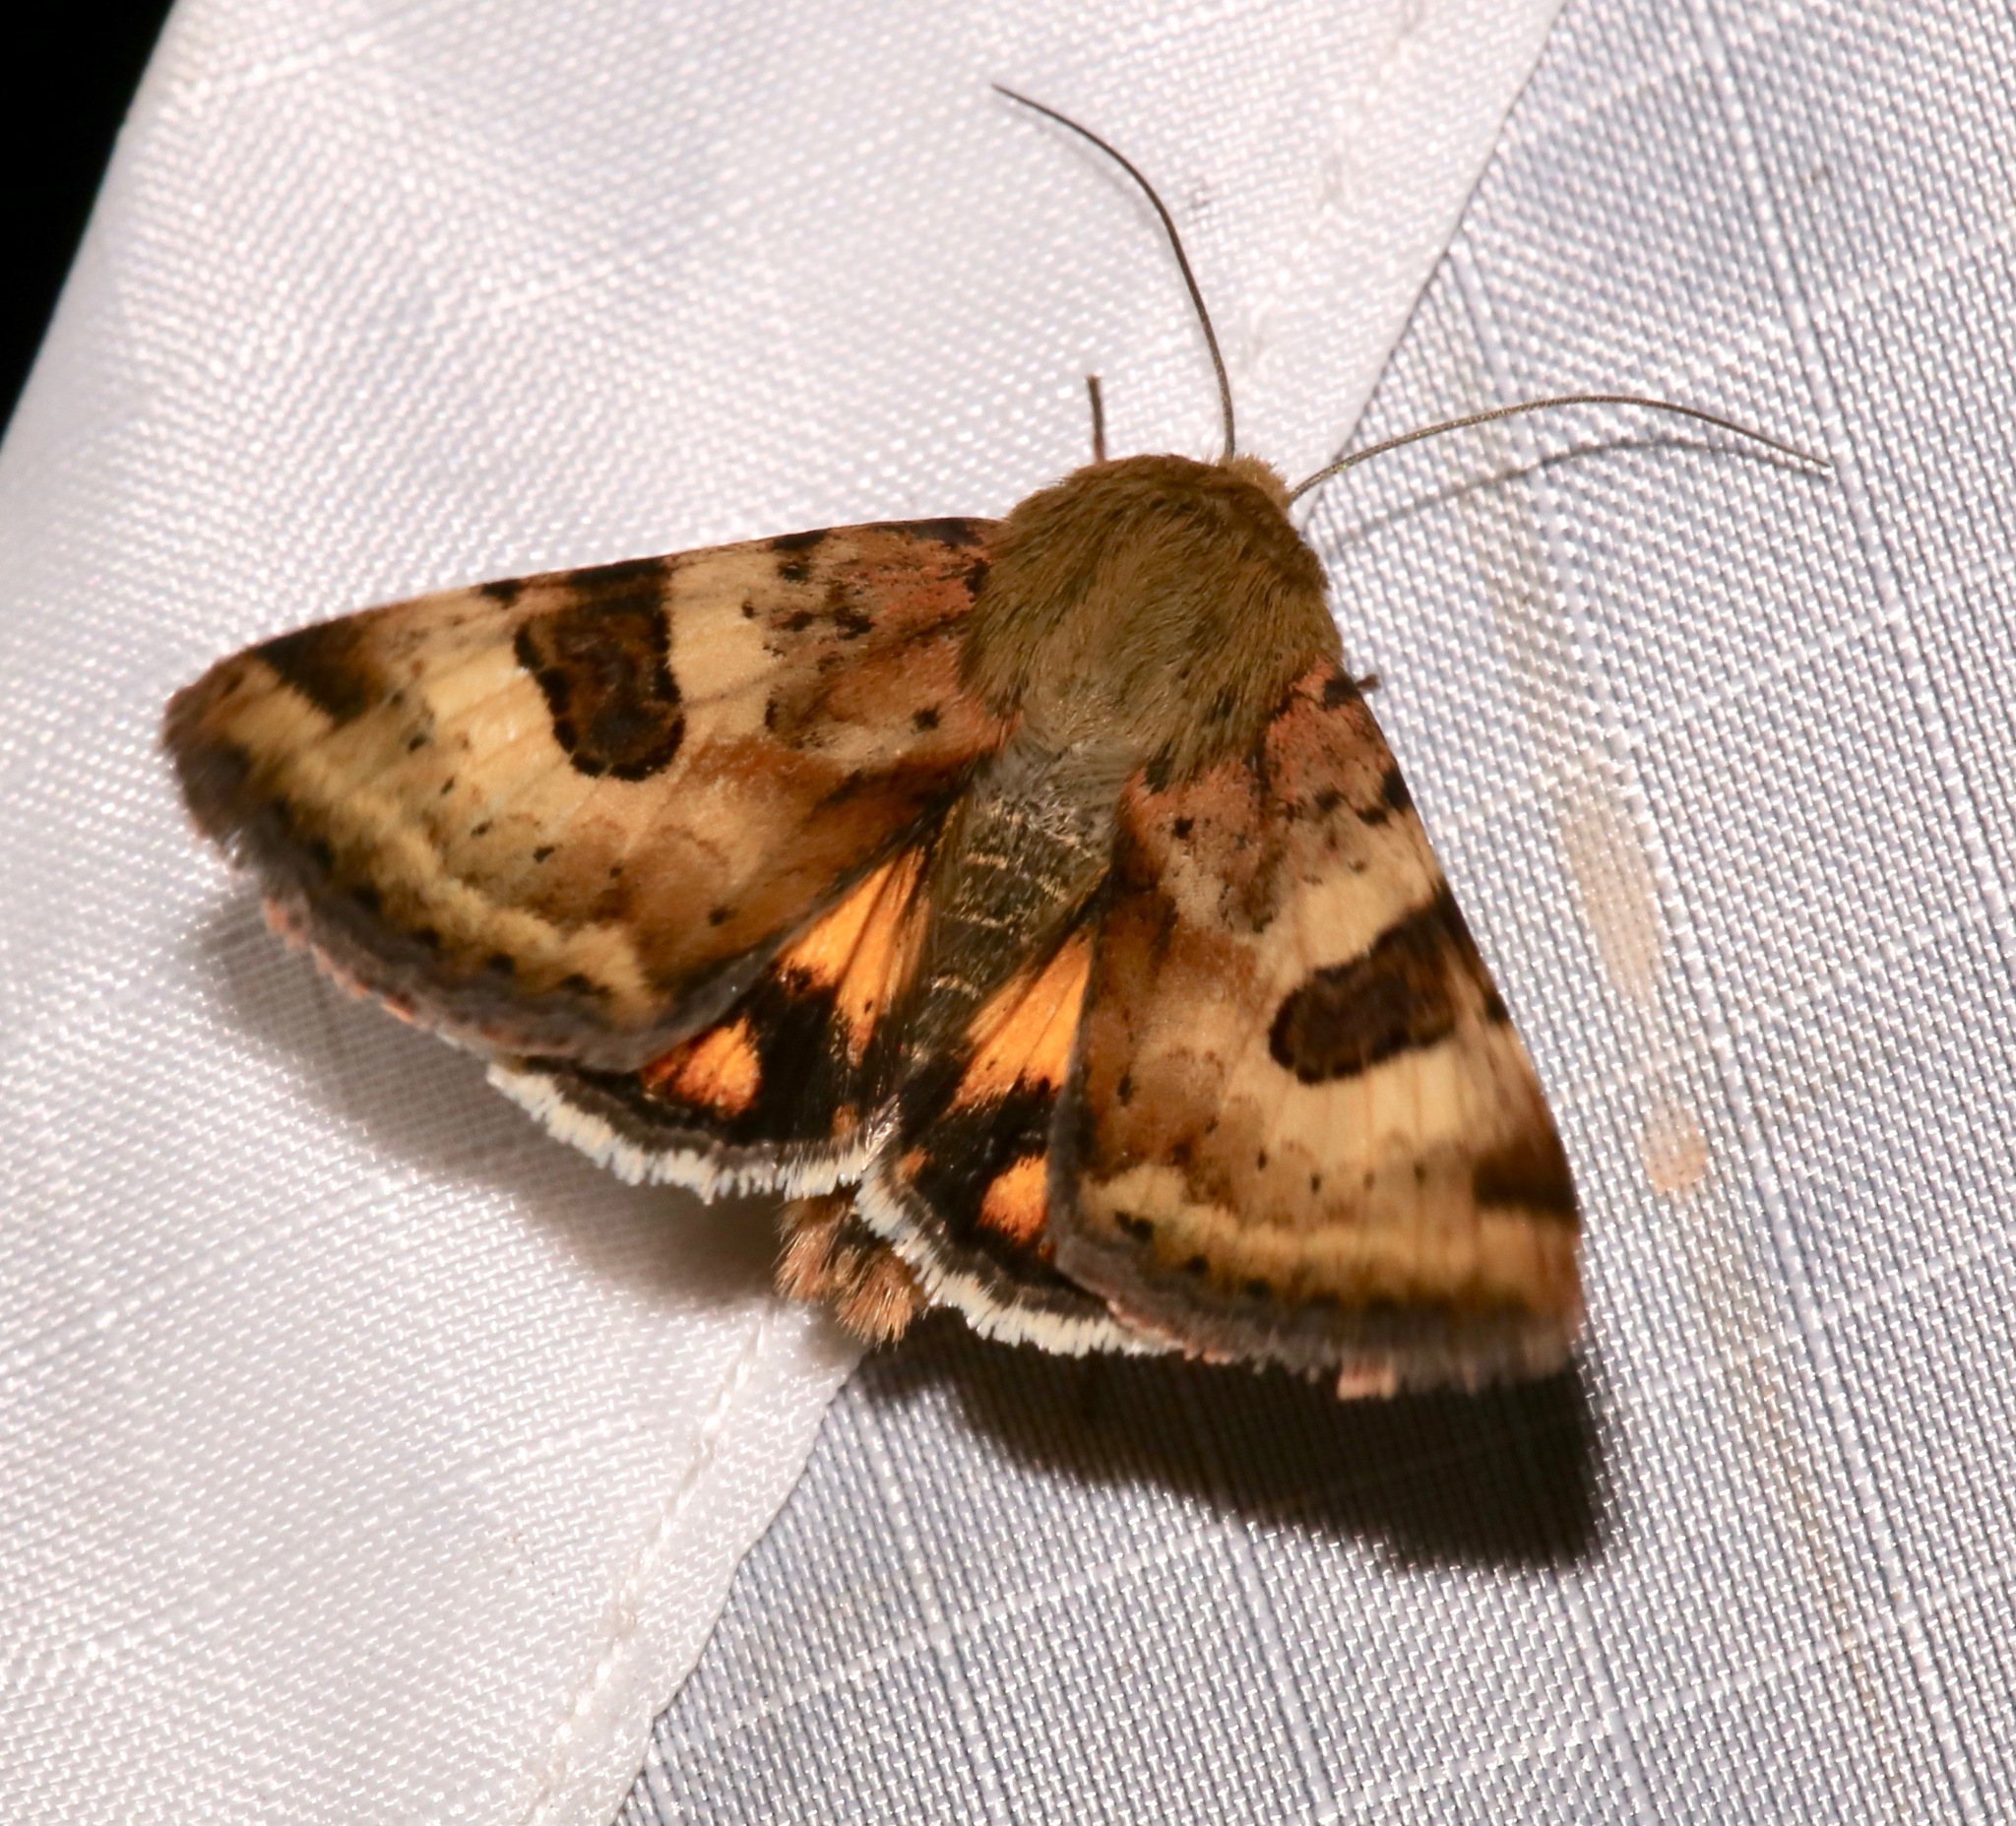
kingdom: Animalia
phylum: Arthropoda
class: Insecta
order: Lepidoptera
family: Noctuidae
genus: Heliothis
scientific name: Heliothis australis
